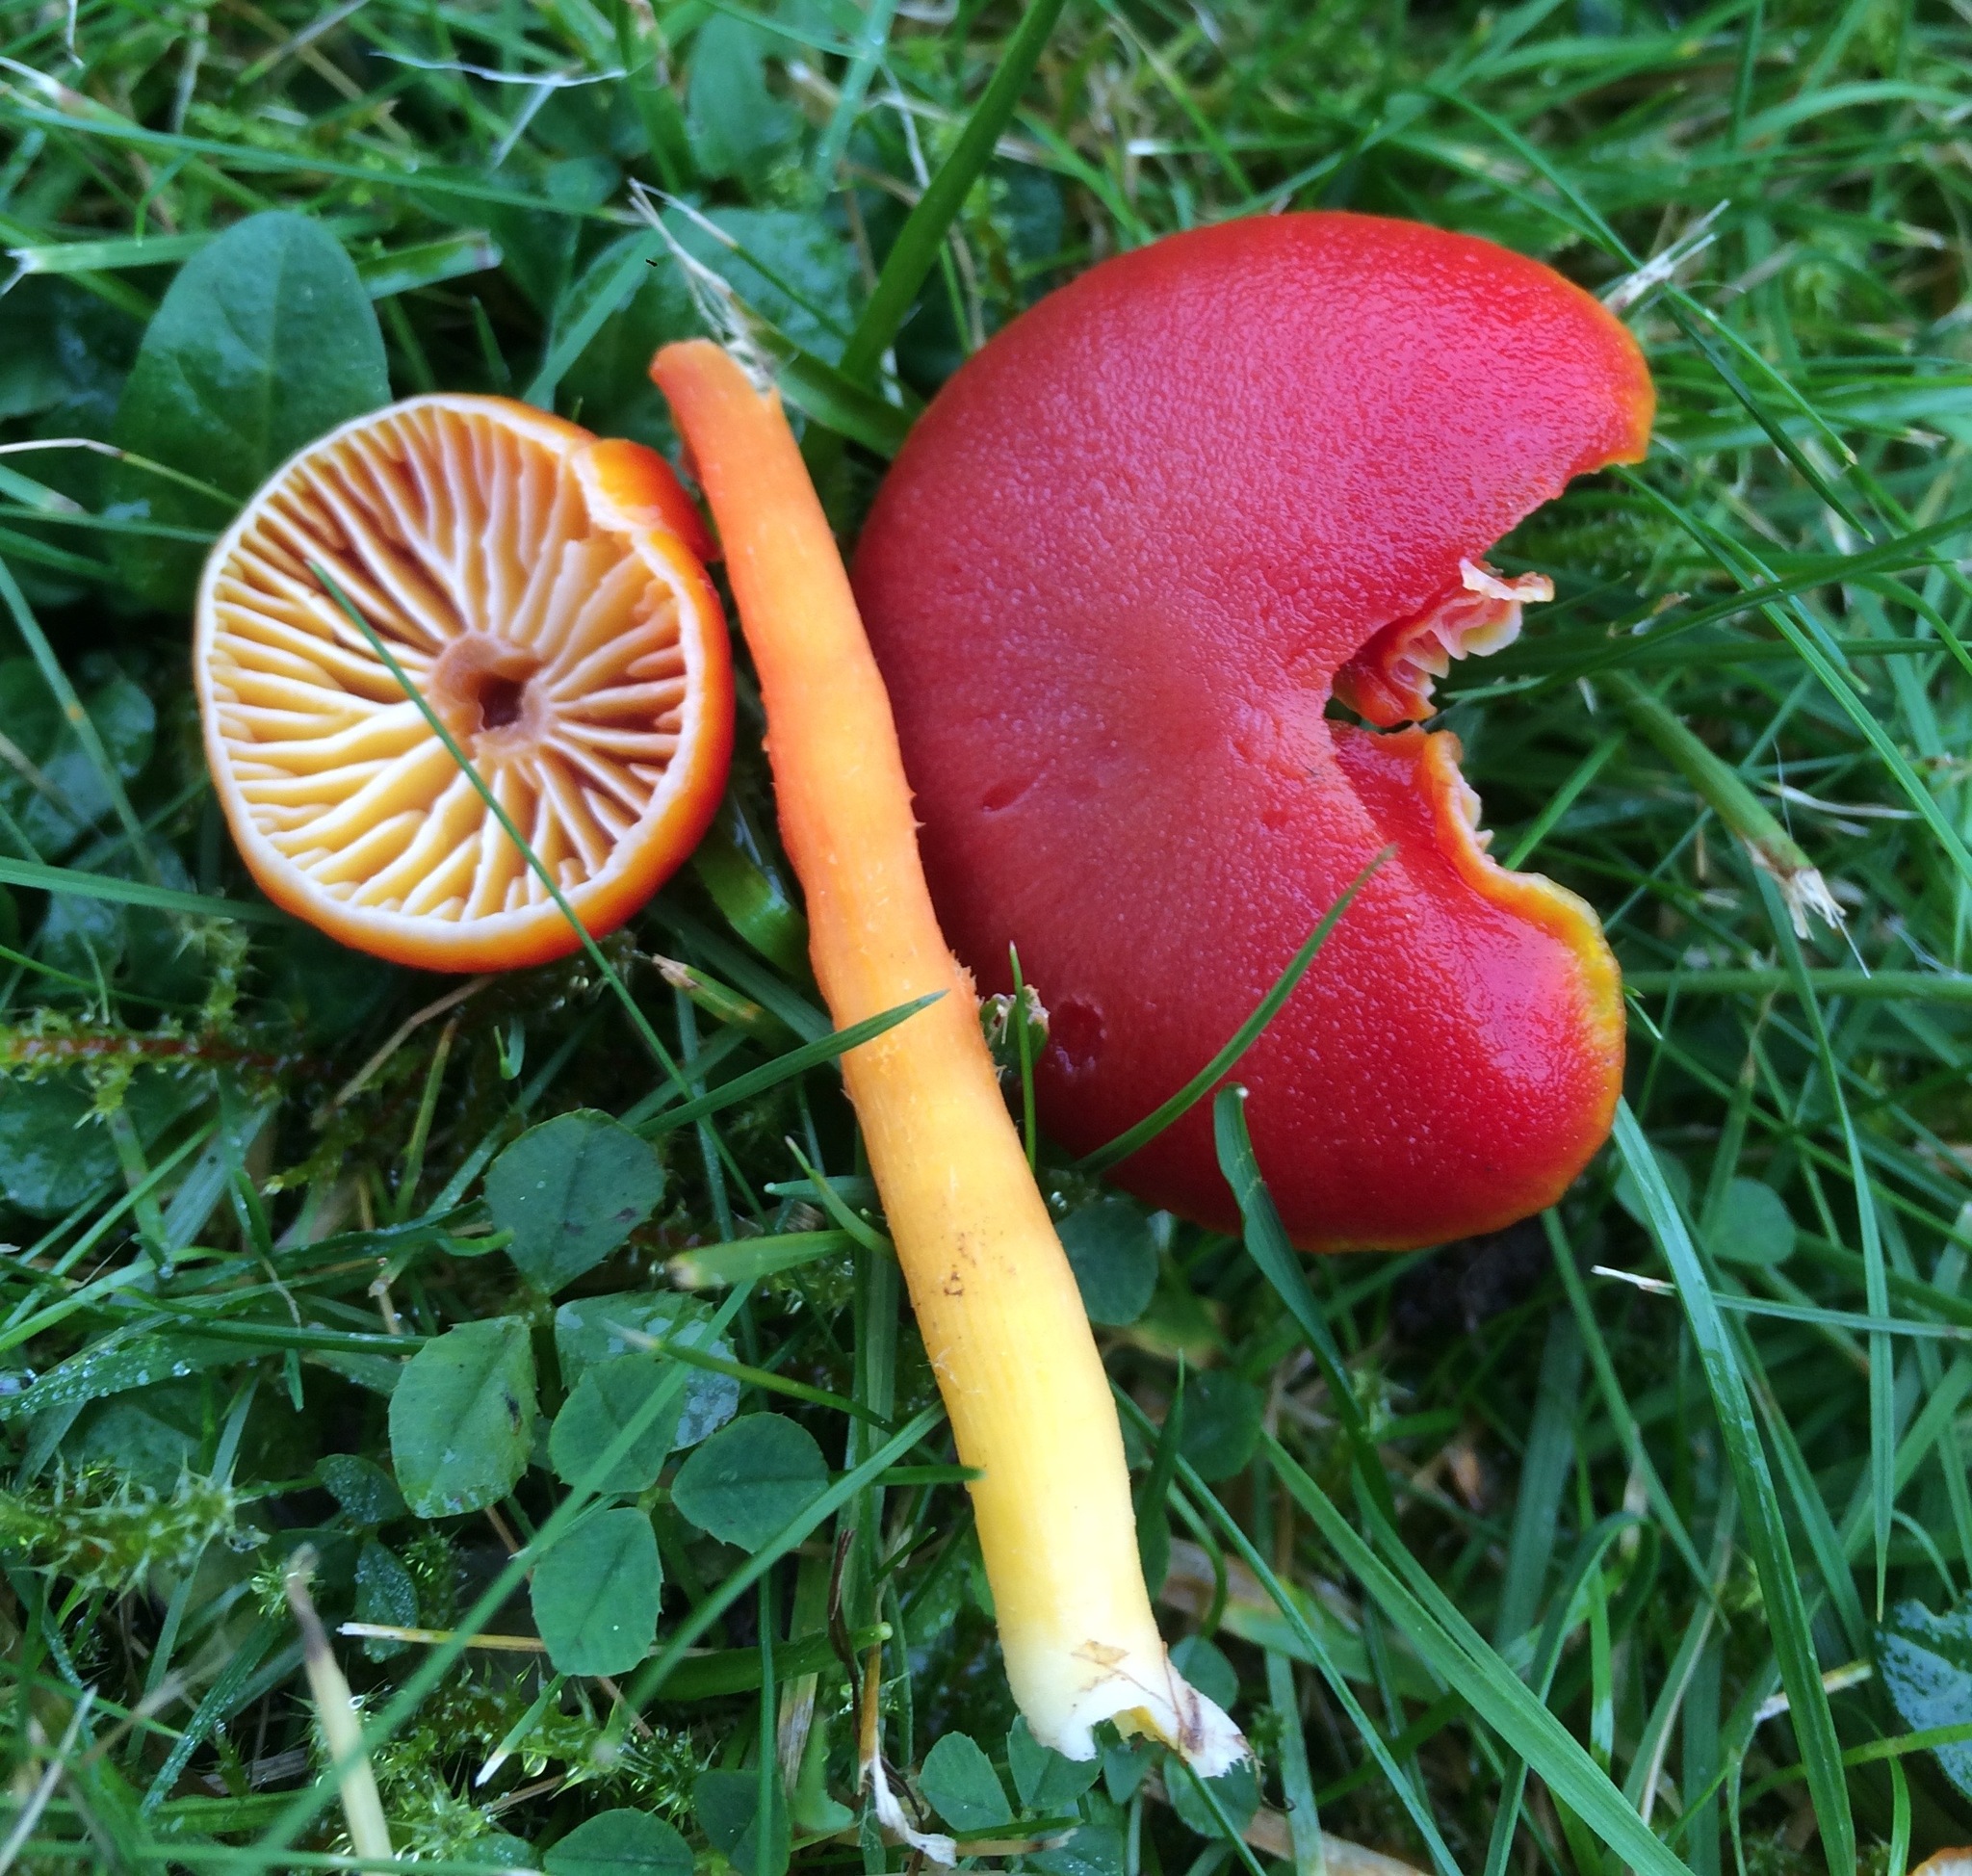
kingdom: Fungi
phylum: Basidiomycota
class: Agaricomycetes
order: Agaricales
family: Hygrophoraceae
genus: Hygrocybe
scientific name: Hygrocybe coccinea
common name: Scarlet hood
